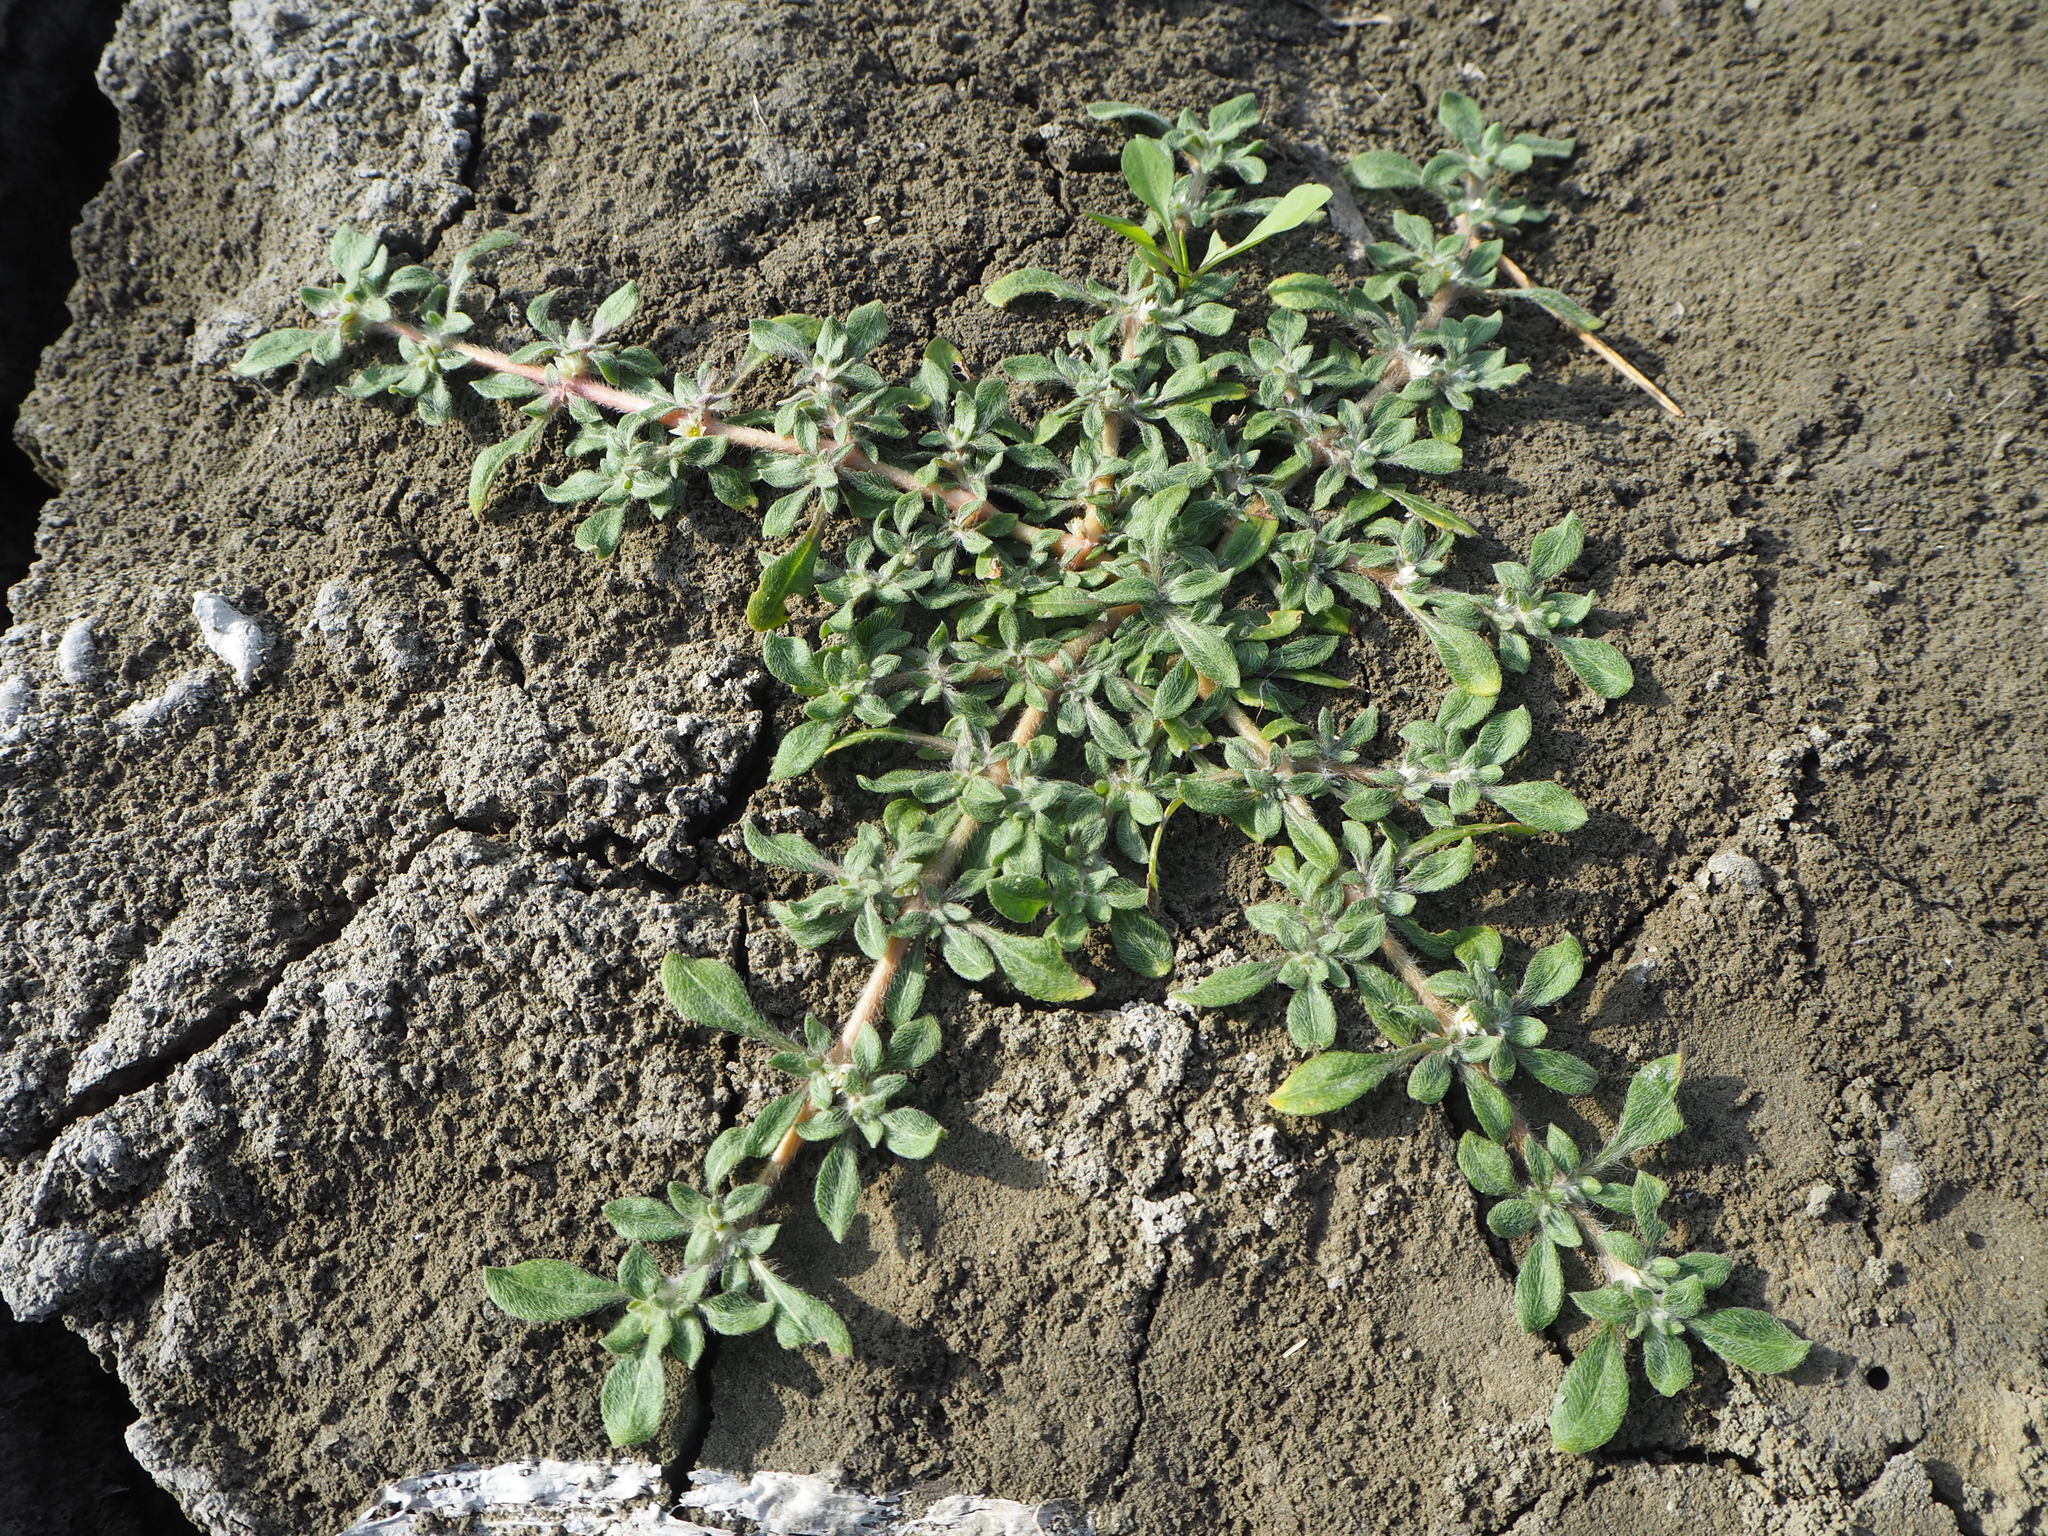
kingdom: Plantae
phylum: Tracheophyta
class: Magnoliopsida
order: Caryophyllales
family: Amaranthaceae
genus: Alternanthera
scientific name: Alternanthera paronychioides
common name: Smooth joyweed
